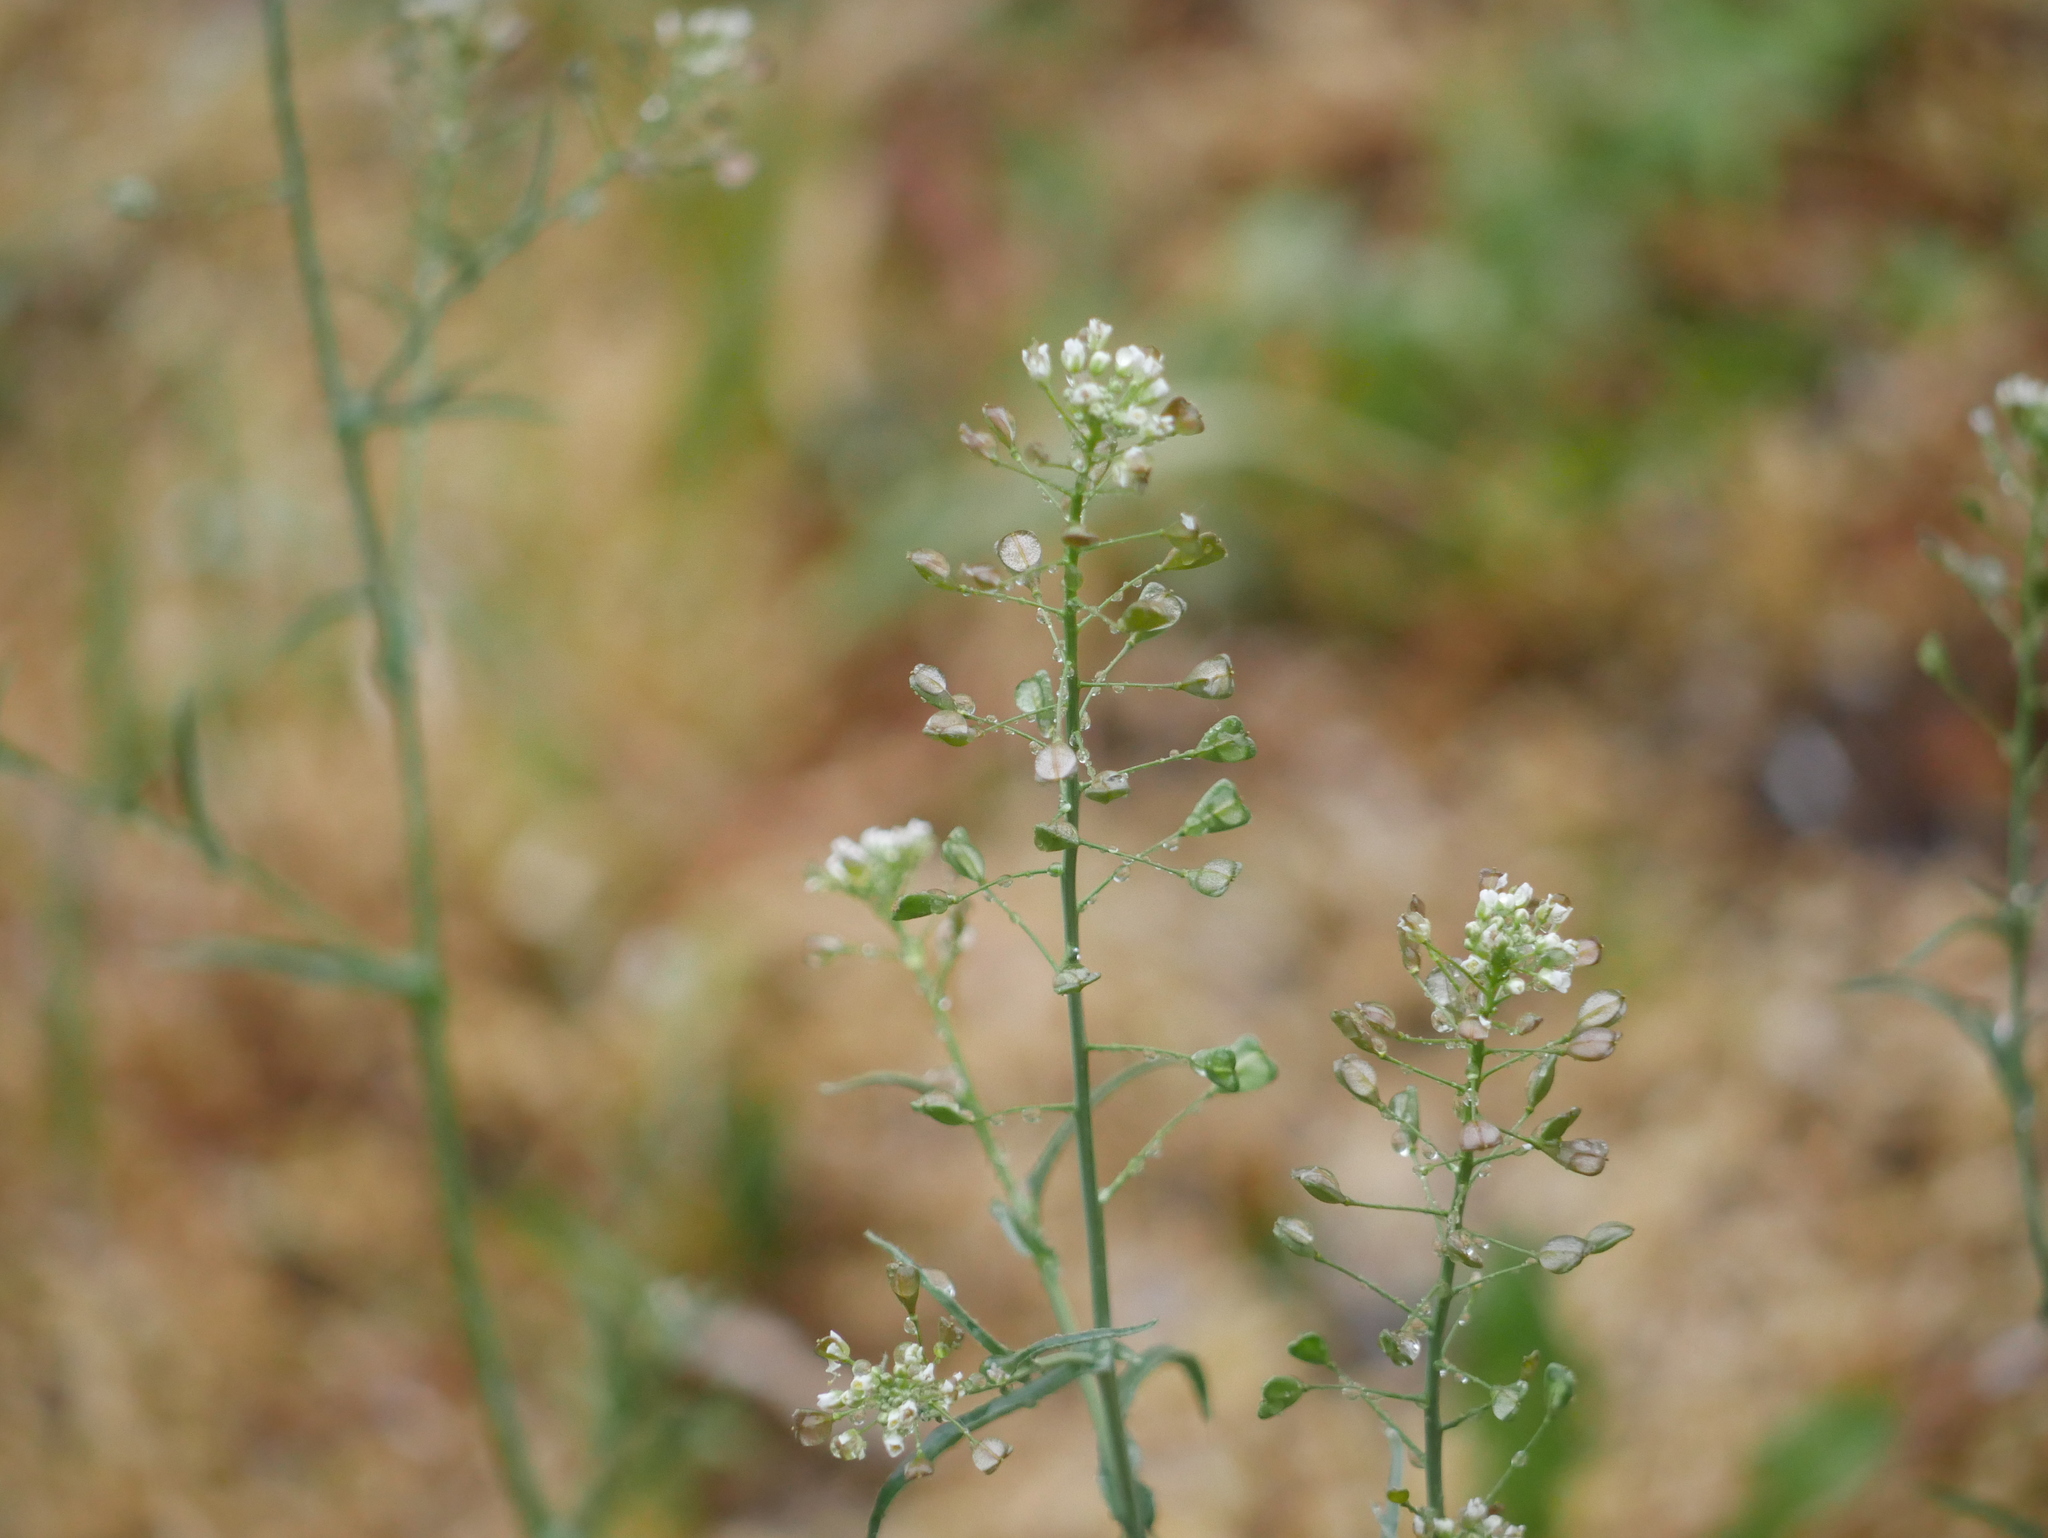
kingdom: Plantae
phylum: Tracheophyta
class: Magnoliopsida
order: Brassicales
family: Brassicaceae
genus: Capsella
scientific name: Capsella bursa-pastoris
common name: Shepherd's purse
